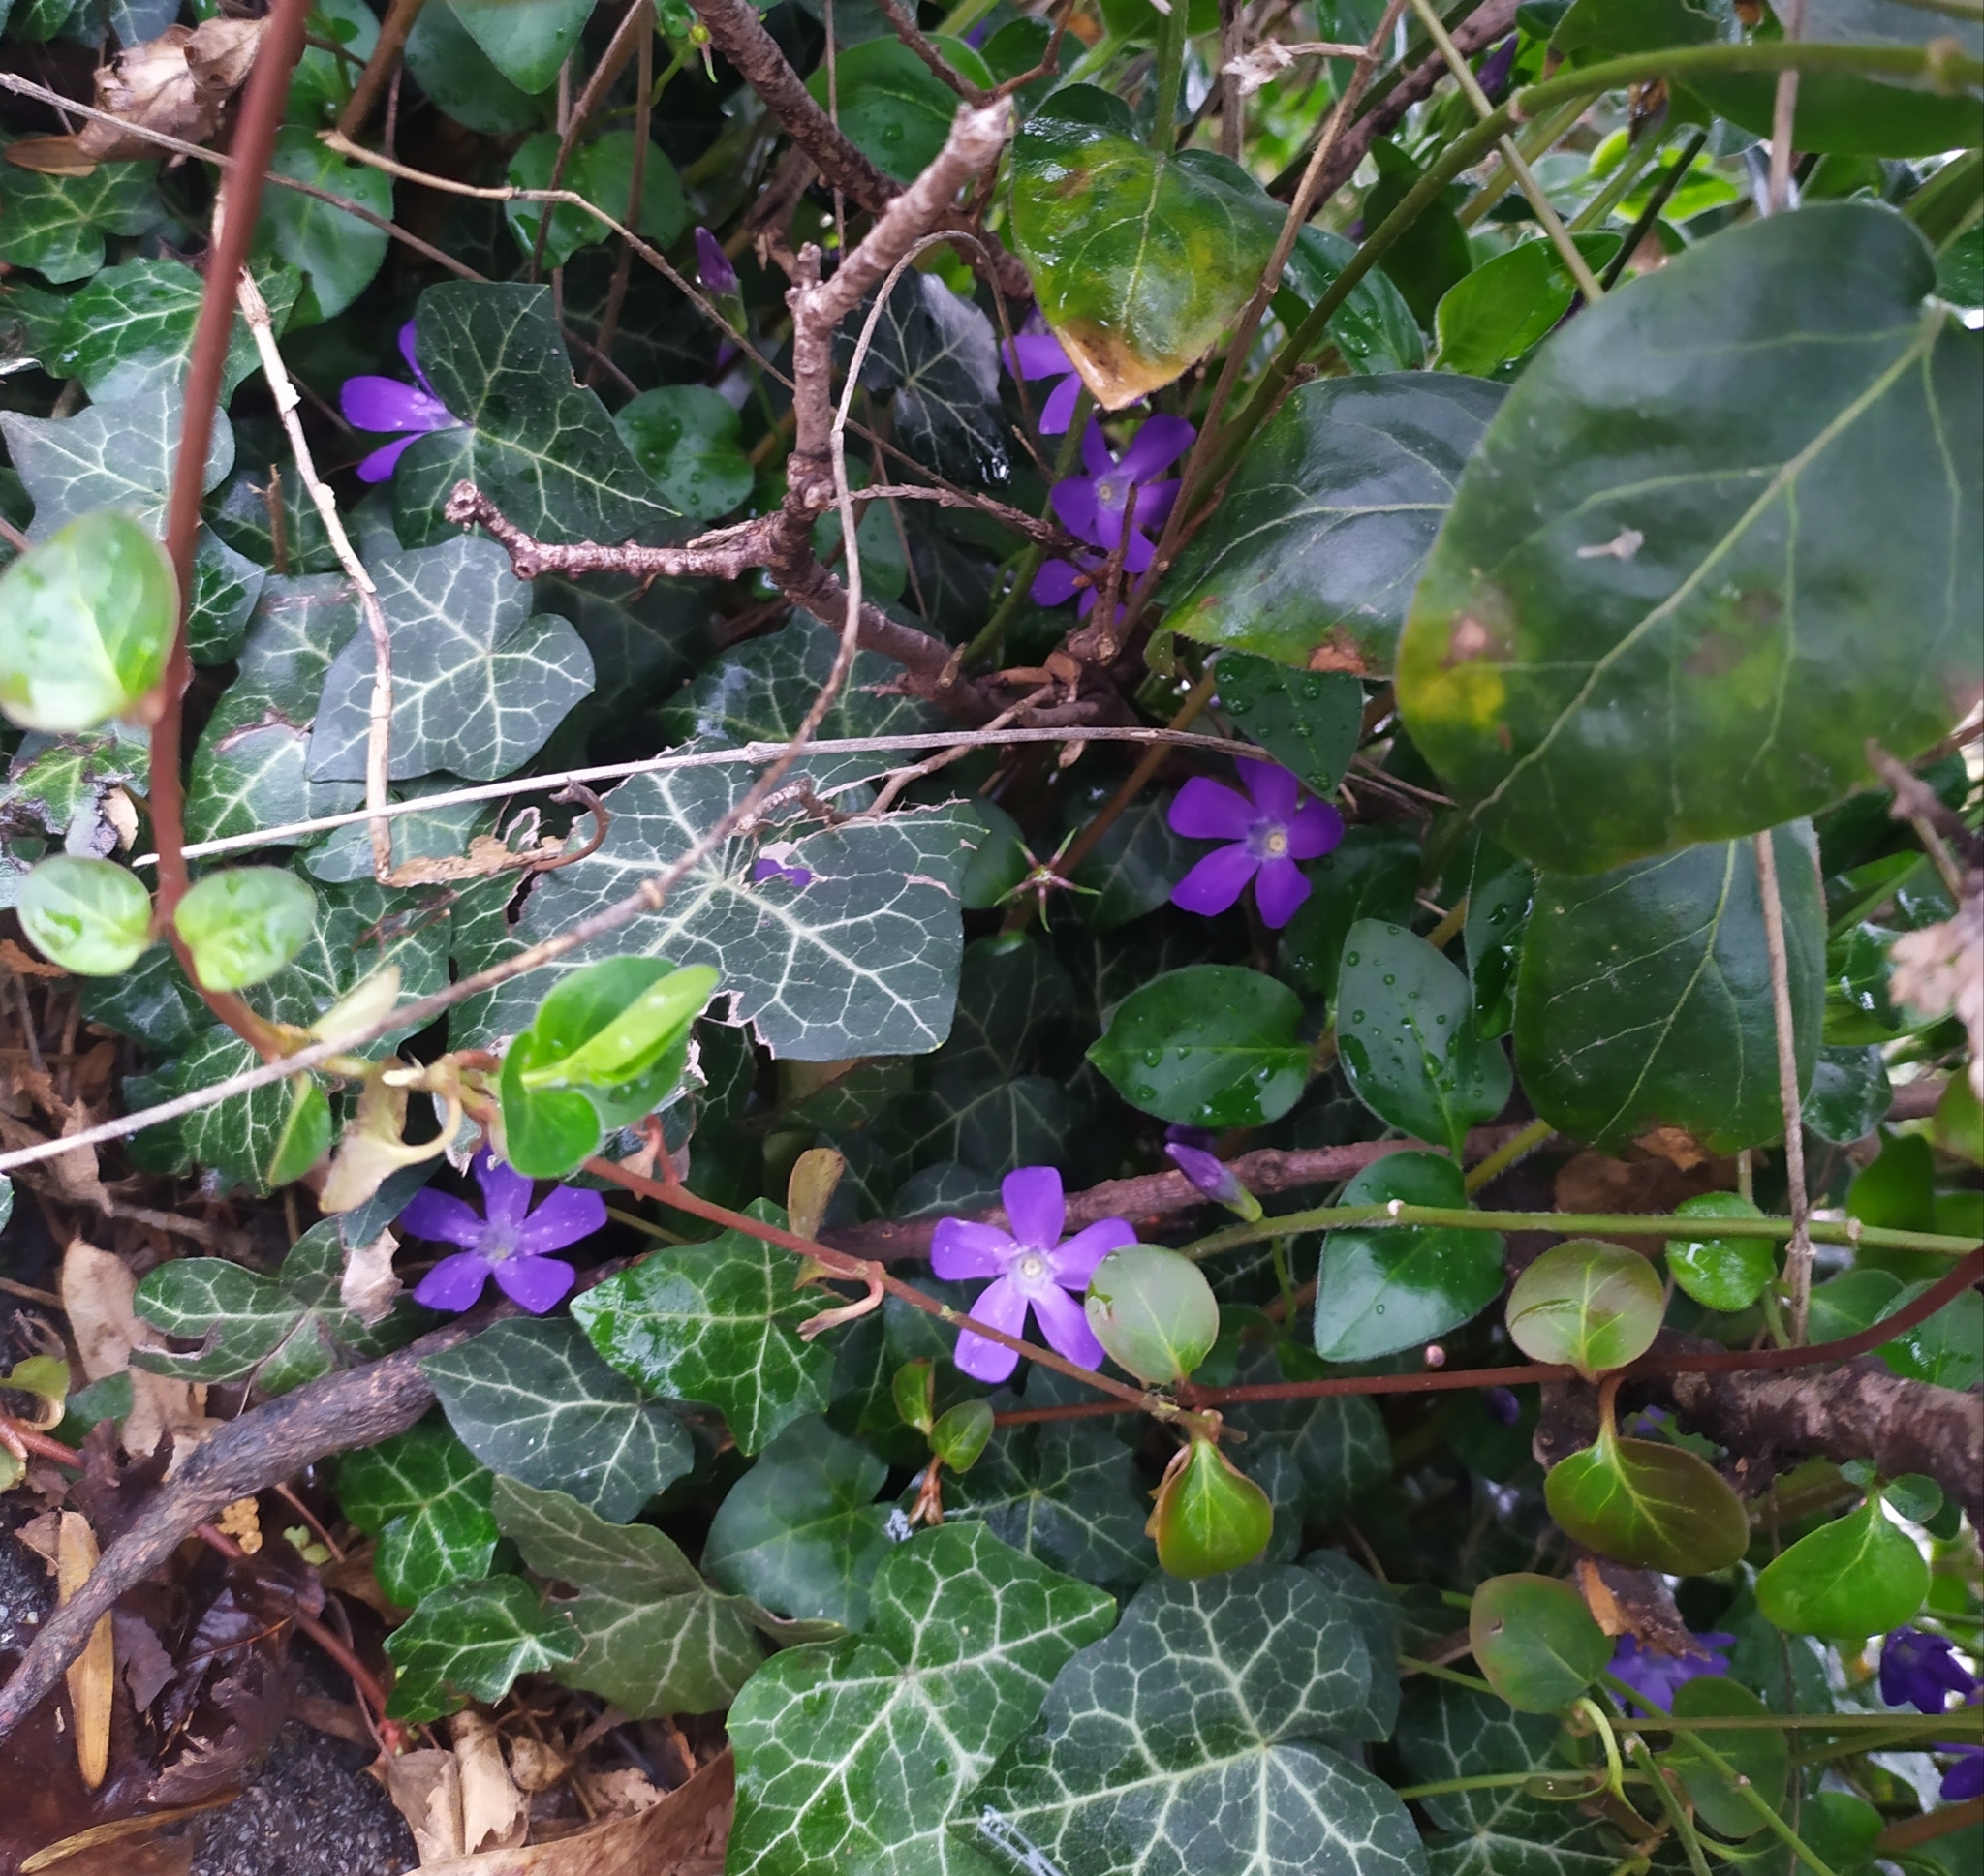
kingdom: Plantae
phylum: Tracheophyta
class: Magnoliopsida
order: Gentianales
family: Apocynaceae
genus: Vinca
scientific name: Vinca major
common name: Greater periwinkle
